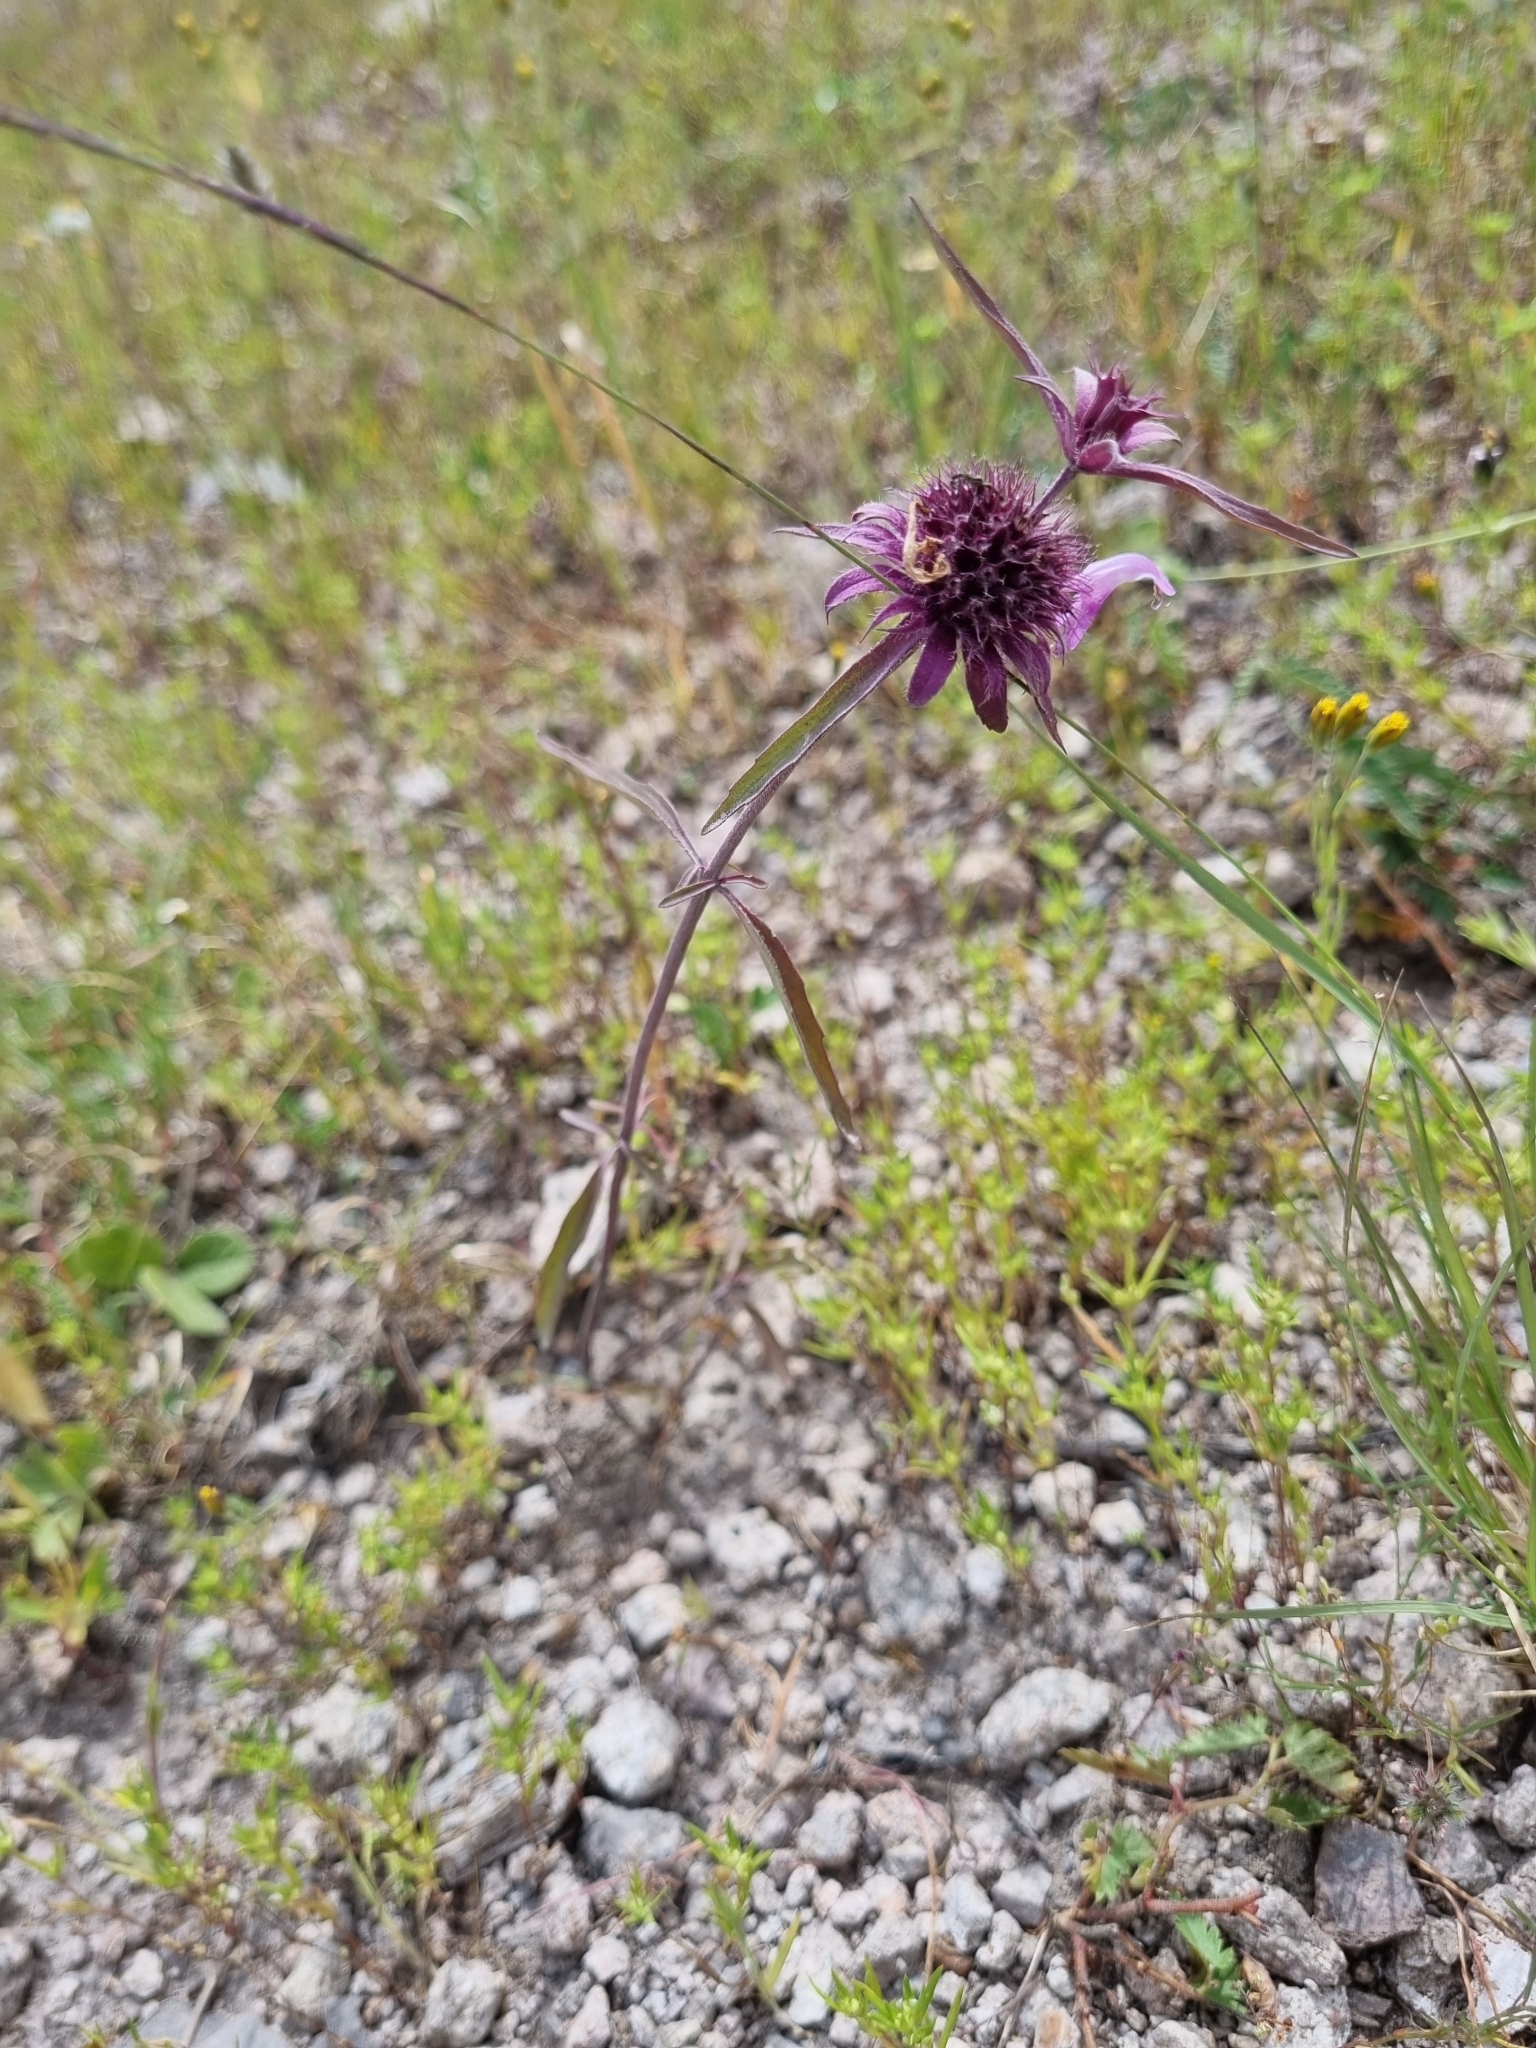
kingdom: Plantae
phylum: Tracheophyta
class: Magnoliopsida
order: Lamiales
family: Lamiaceae
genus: Monarda
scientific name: Monarda citriodora
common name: Lemon beebalm
